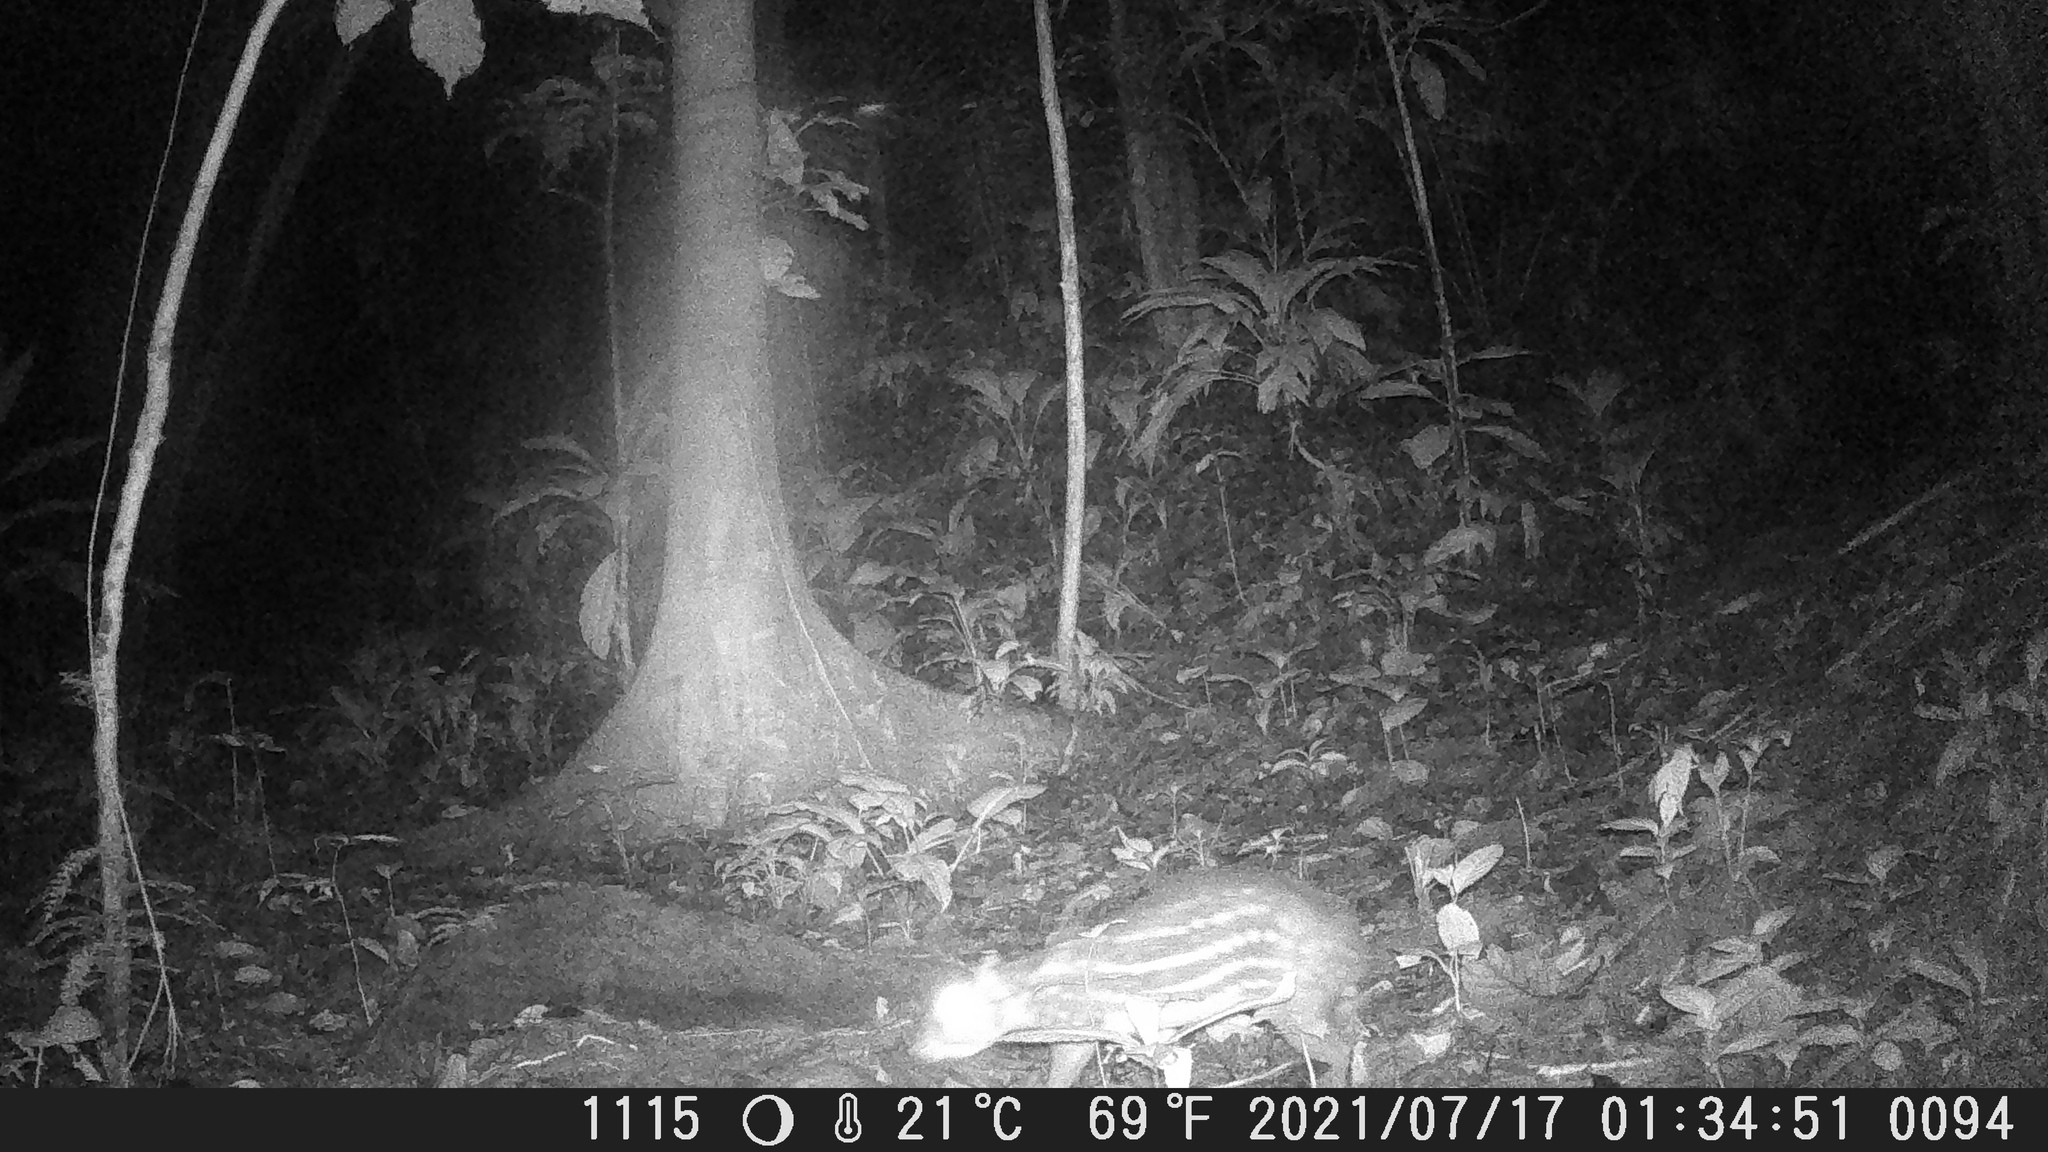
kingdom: Animalia
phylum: Chordata
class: Mammalia
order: Rodentia
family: Cuniculidae
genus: Cuniculus
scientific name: Cuniculus paca
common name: Lowland paca
